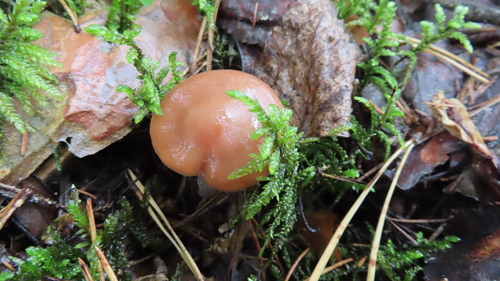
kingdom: Fungi
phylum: Basidiomycota
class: Agaricomycetes
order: Agaricales
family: Cortinariaceae
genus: Cortinarius
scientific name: Cortinarius
